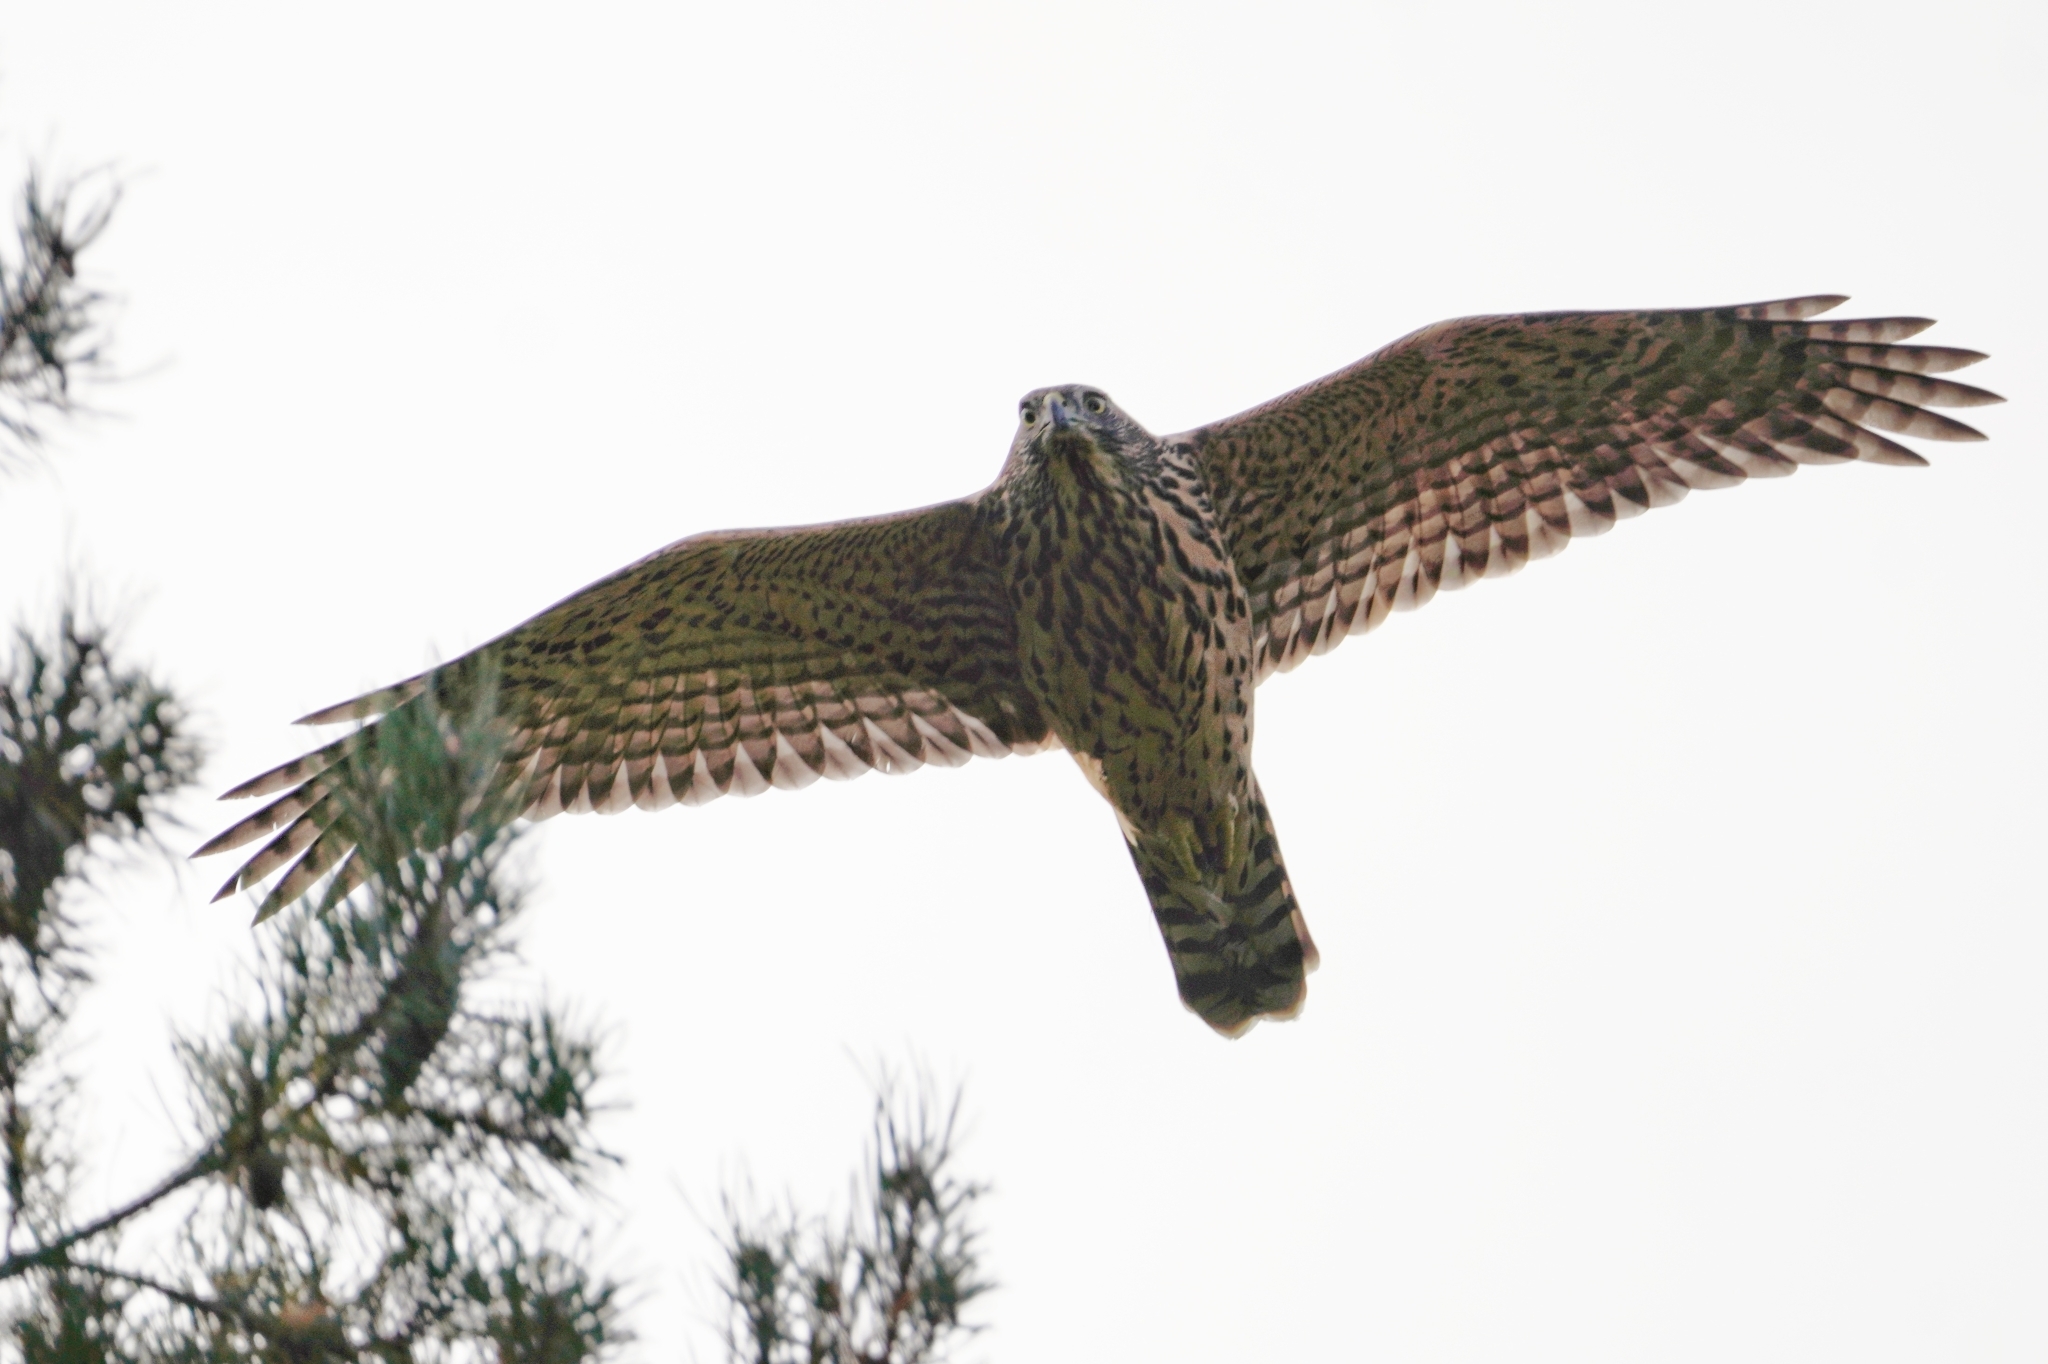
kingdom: Animalia
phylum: Chordata
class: Aves
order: Accipitriformes
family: Accipitridae
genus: Accipiter
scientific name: Accipiter gentilis
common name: Northern goshawk
